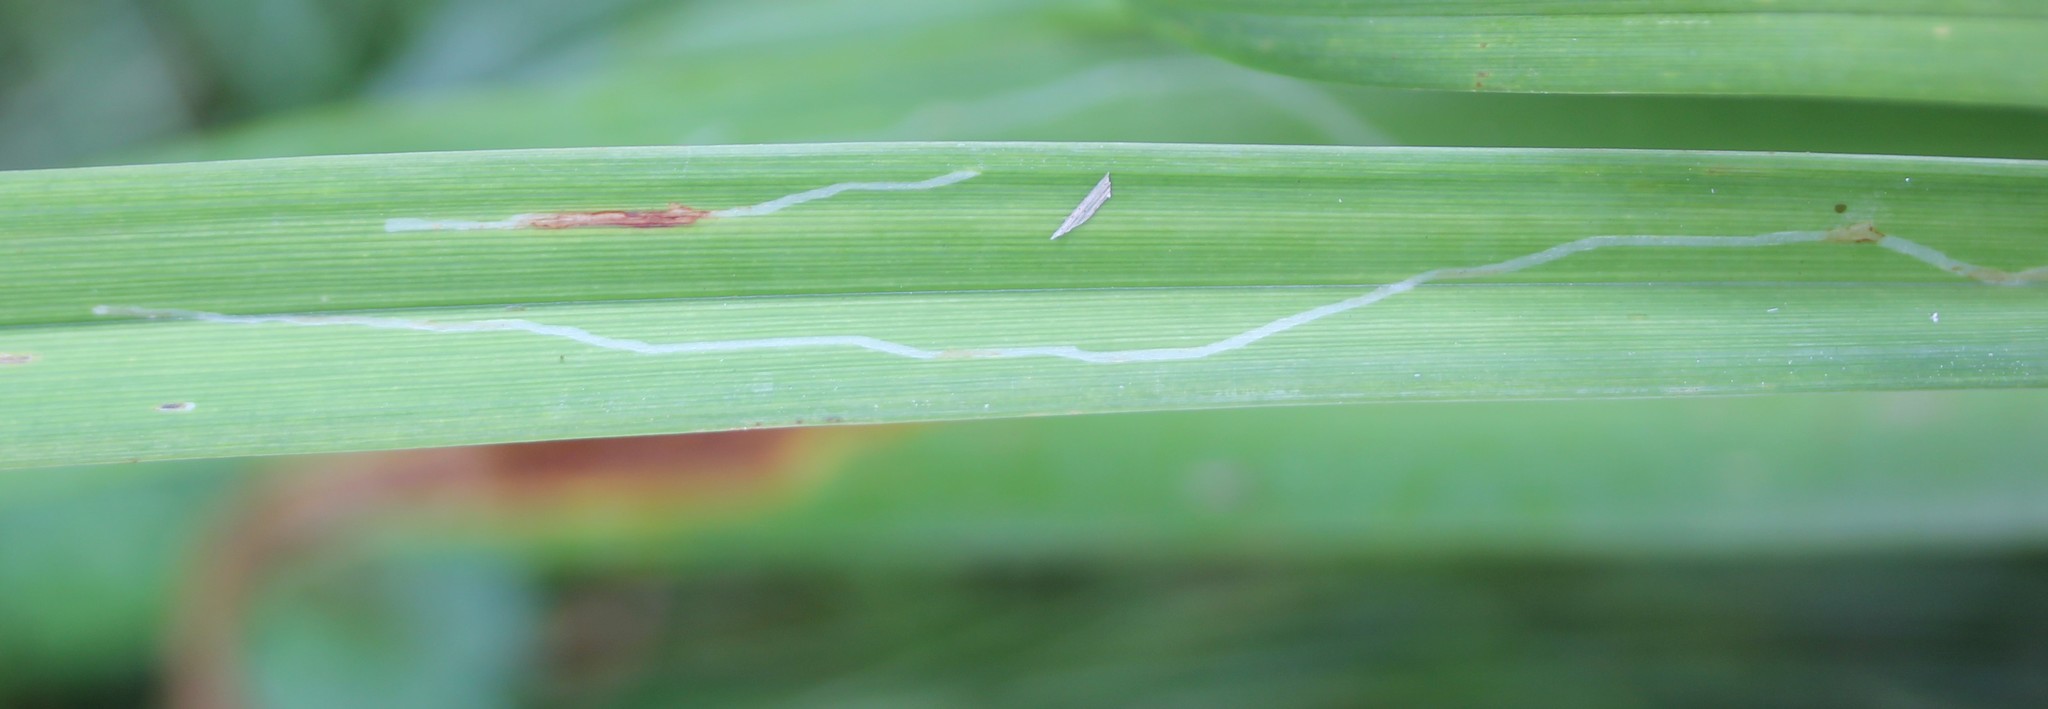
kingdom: Animalia
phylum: Arthropoda
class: Insecta
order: Diptera
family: Agromyzidae
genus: Ophiomyia
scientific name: Ophiomyia kwansonis
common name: Daylily leafminer
